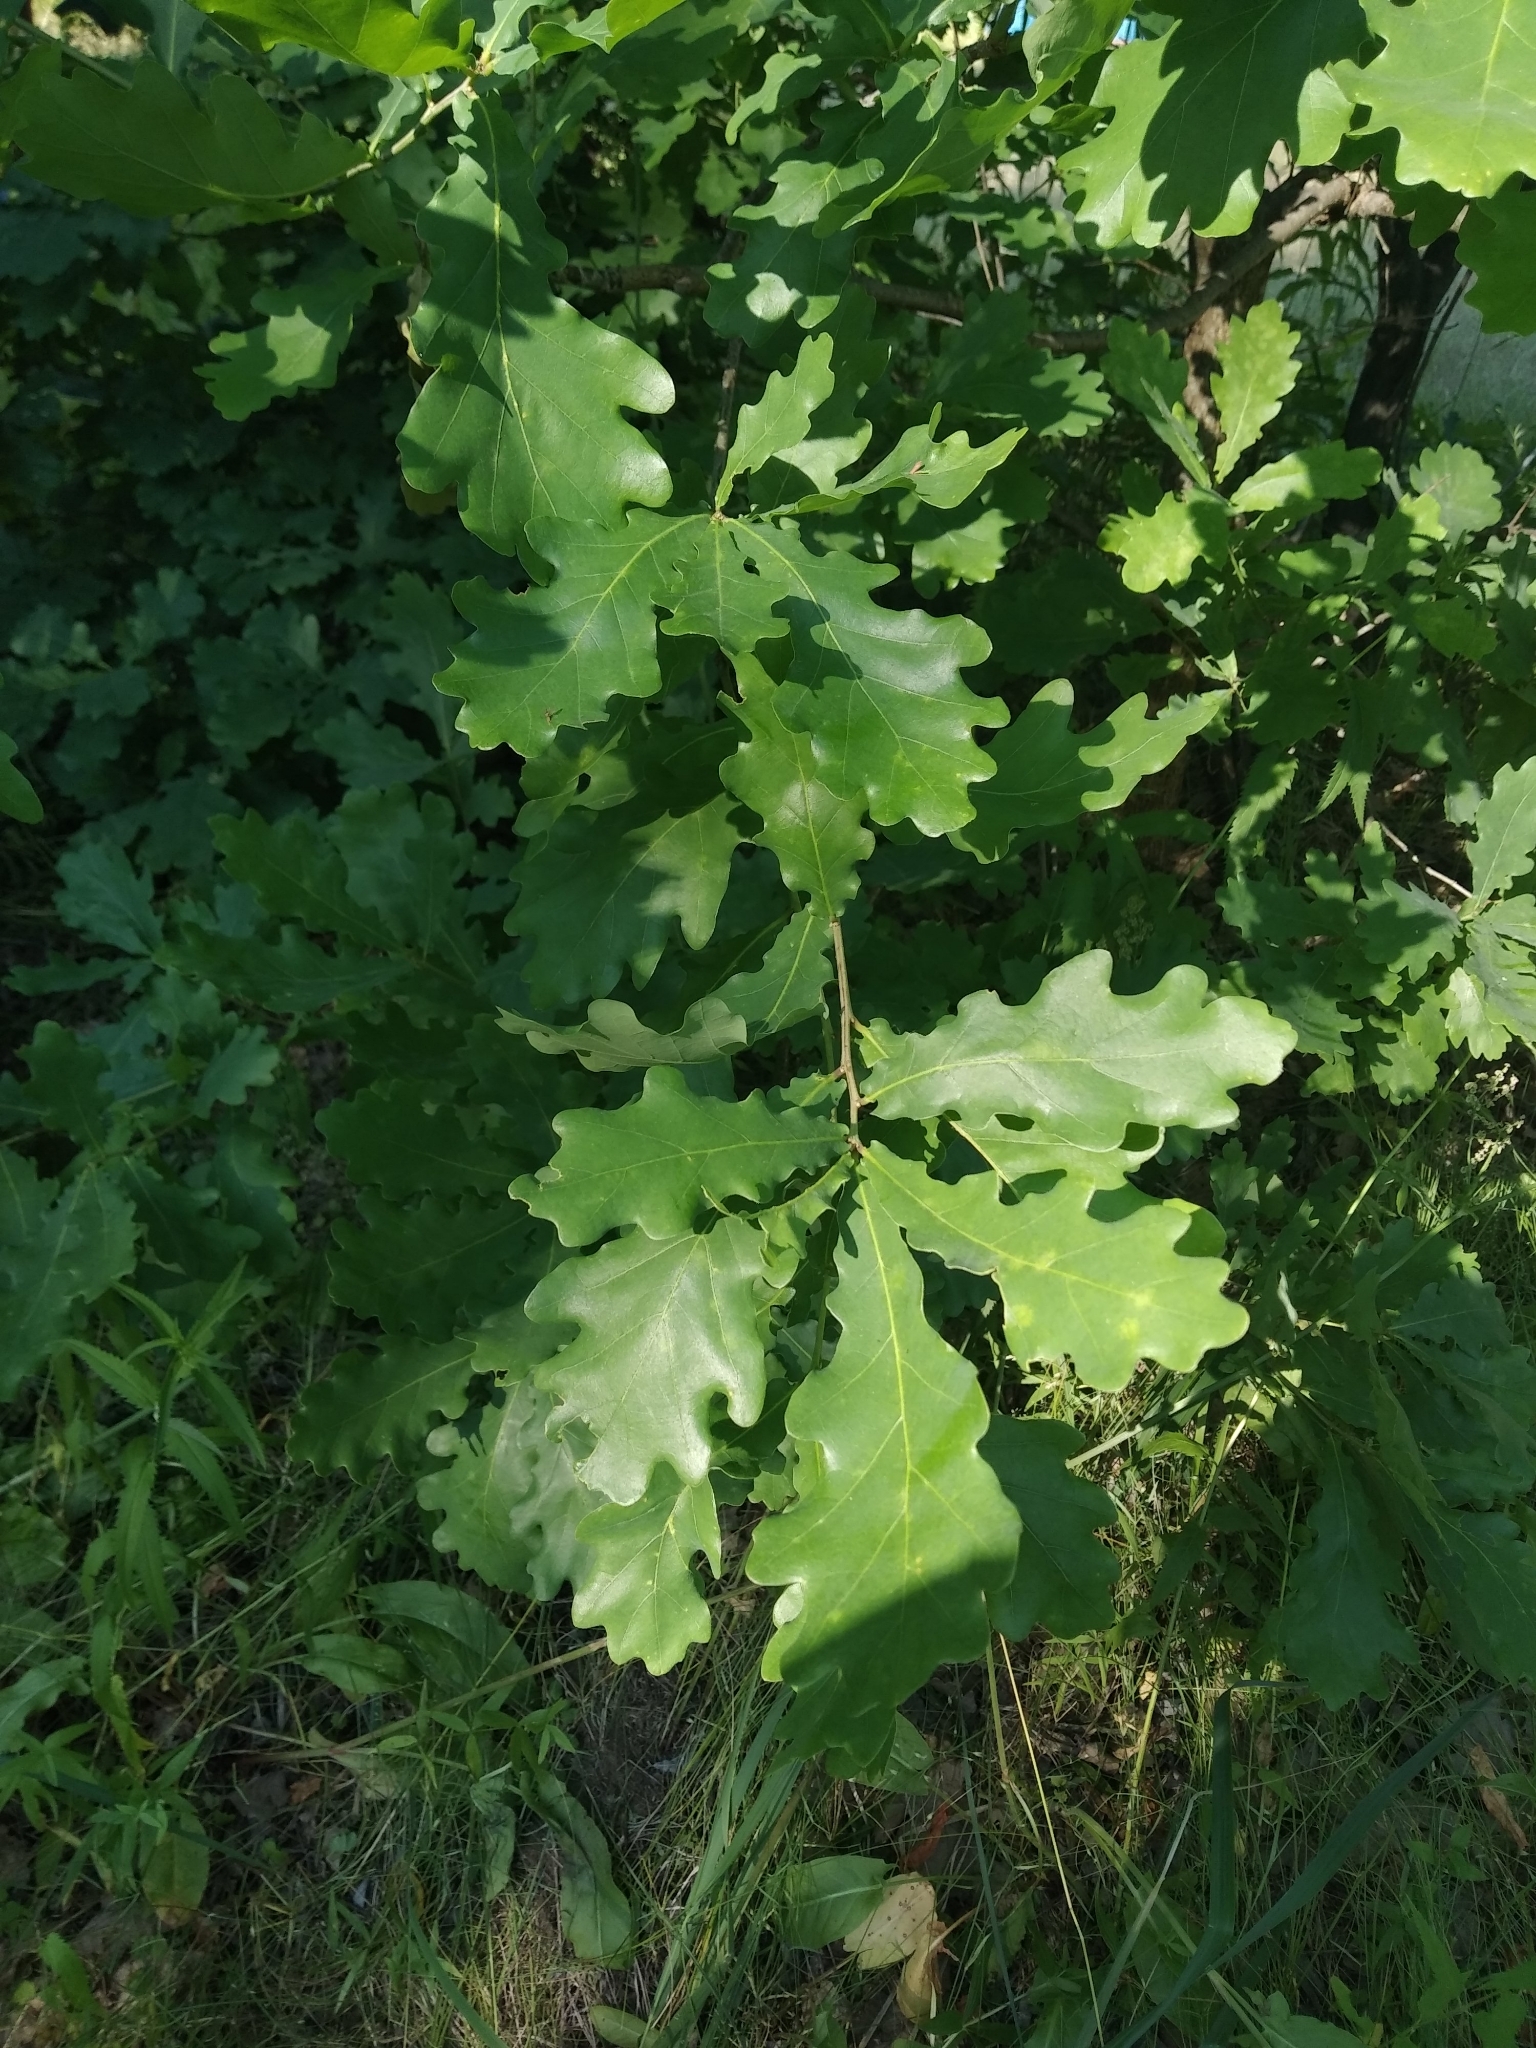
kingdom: Plantae
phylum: Tracheophyta
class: Magnoliopsida
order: Fagales
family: Fagaceae
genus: Quercus
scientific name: Quercus robur
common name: Pedunculate oak
